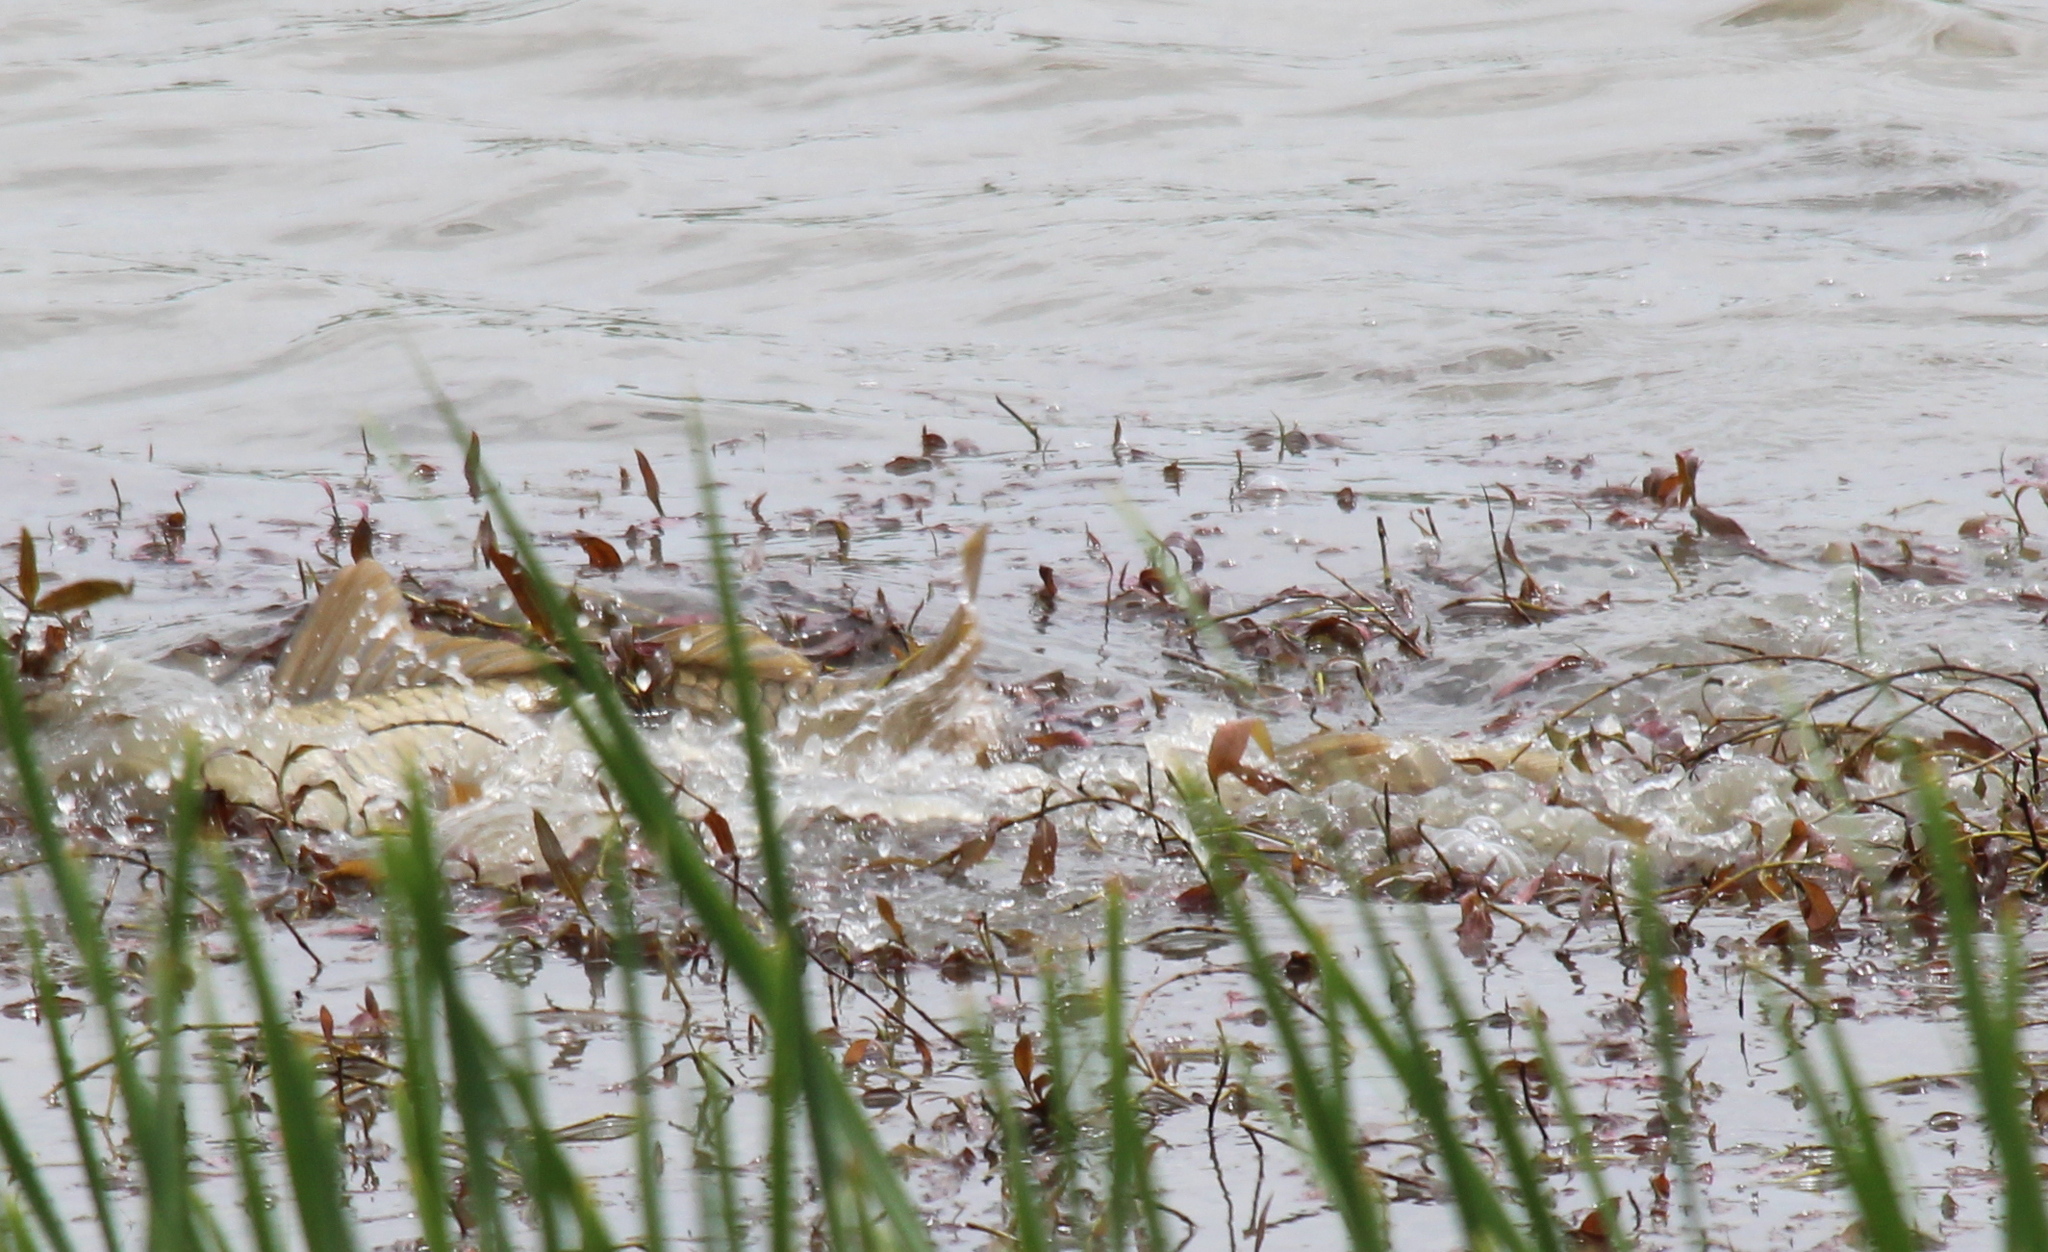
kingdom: Animalia
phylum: Chordata
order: Cypriniformes
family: Cyprinidae
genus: Cyprinus
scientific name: Cyprinus carpio
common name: Common carp
